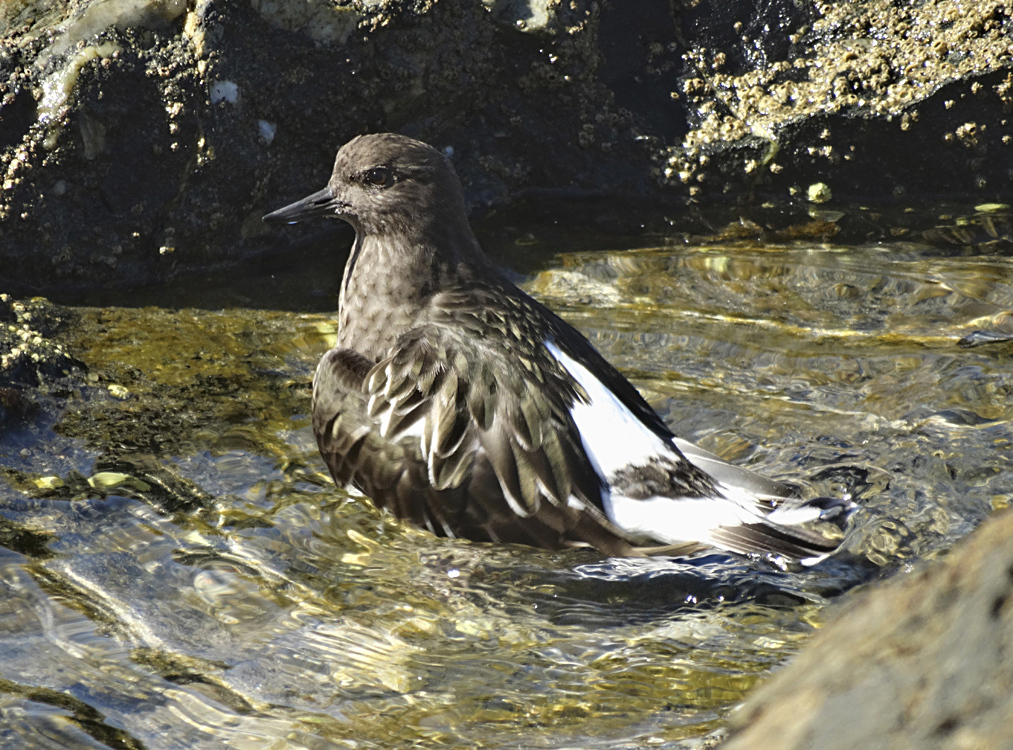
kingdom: Animalia
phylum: Chordata
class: Aves
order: Charadriiformes
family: Scolopacidae
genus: Arenaria
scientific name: Arenaria melanocephala
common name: Black turnstone
